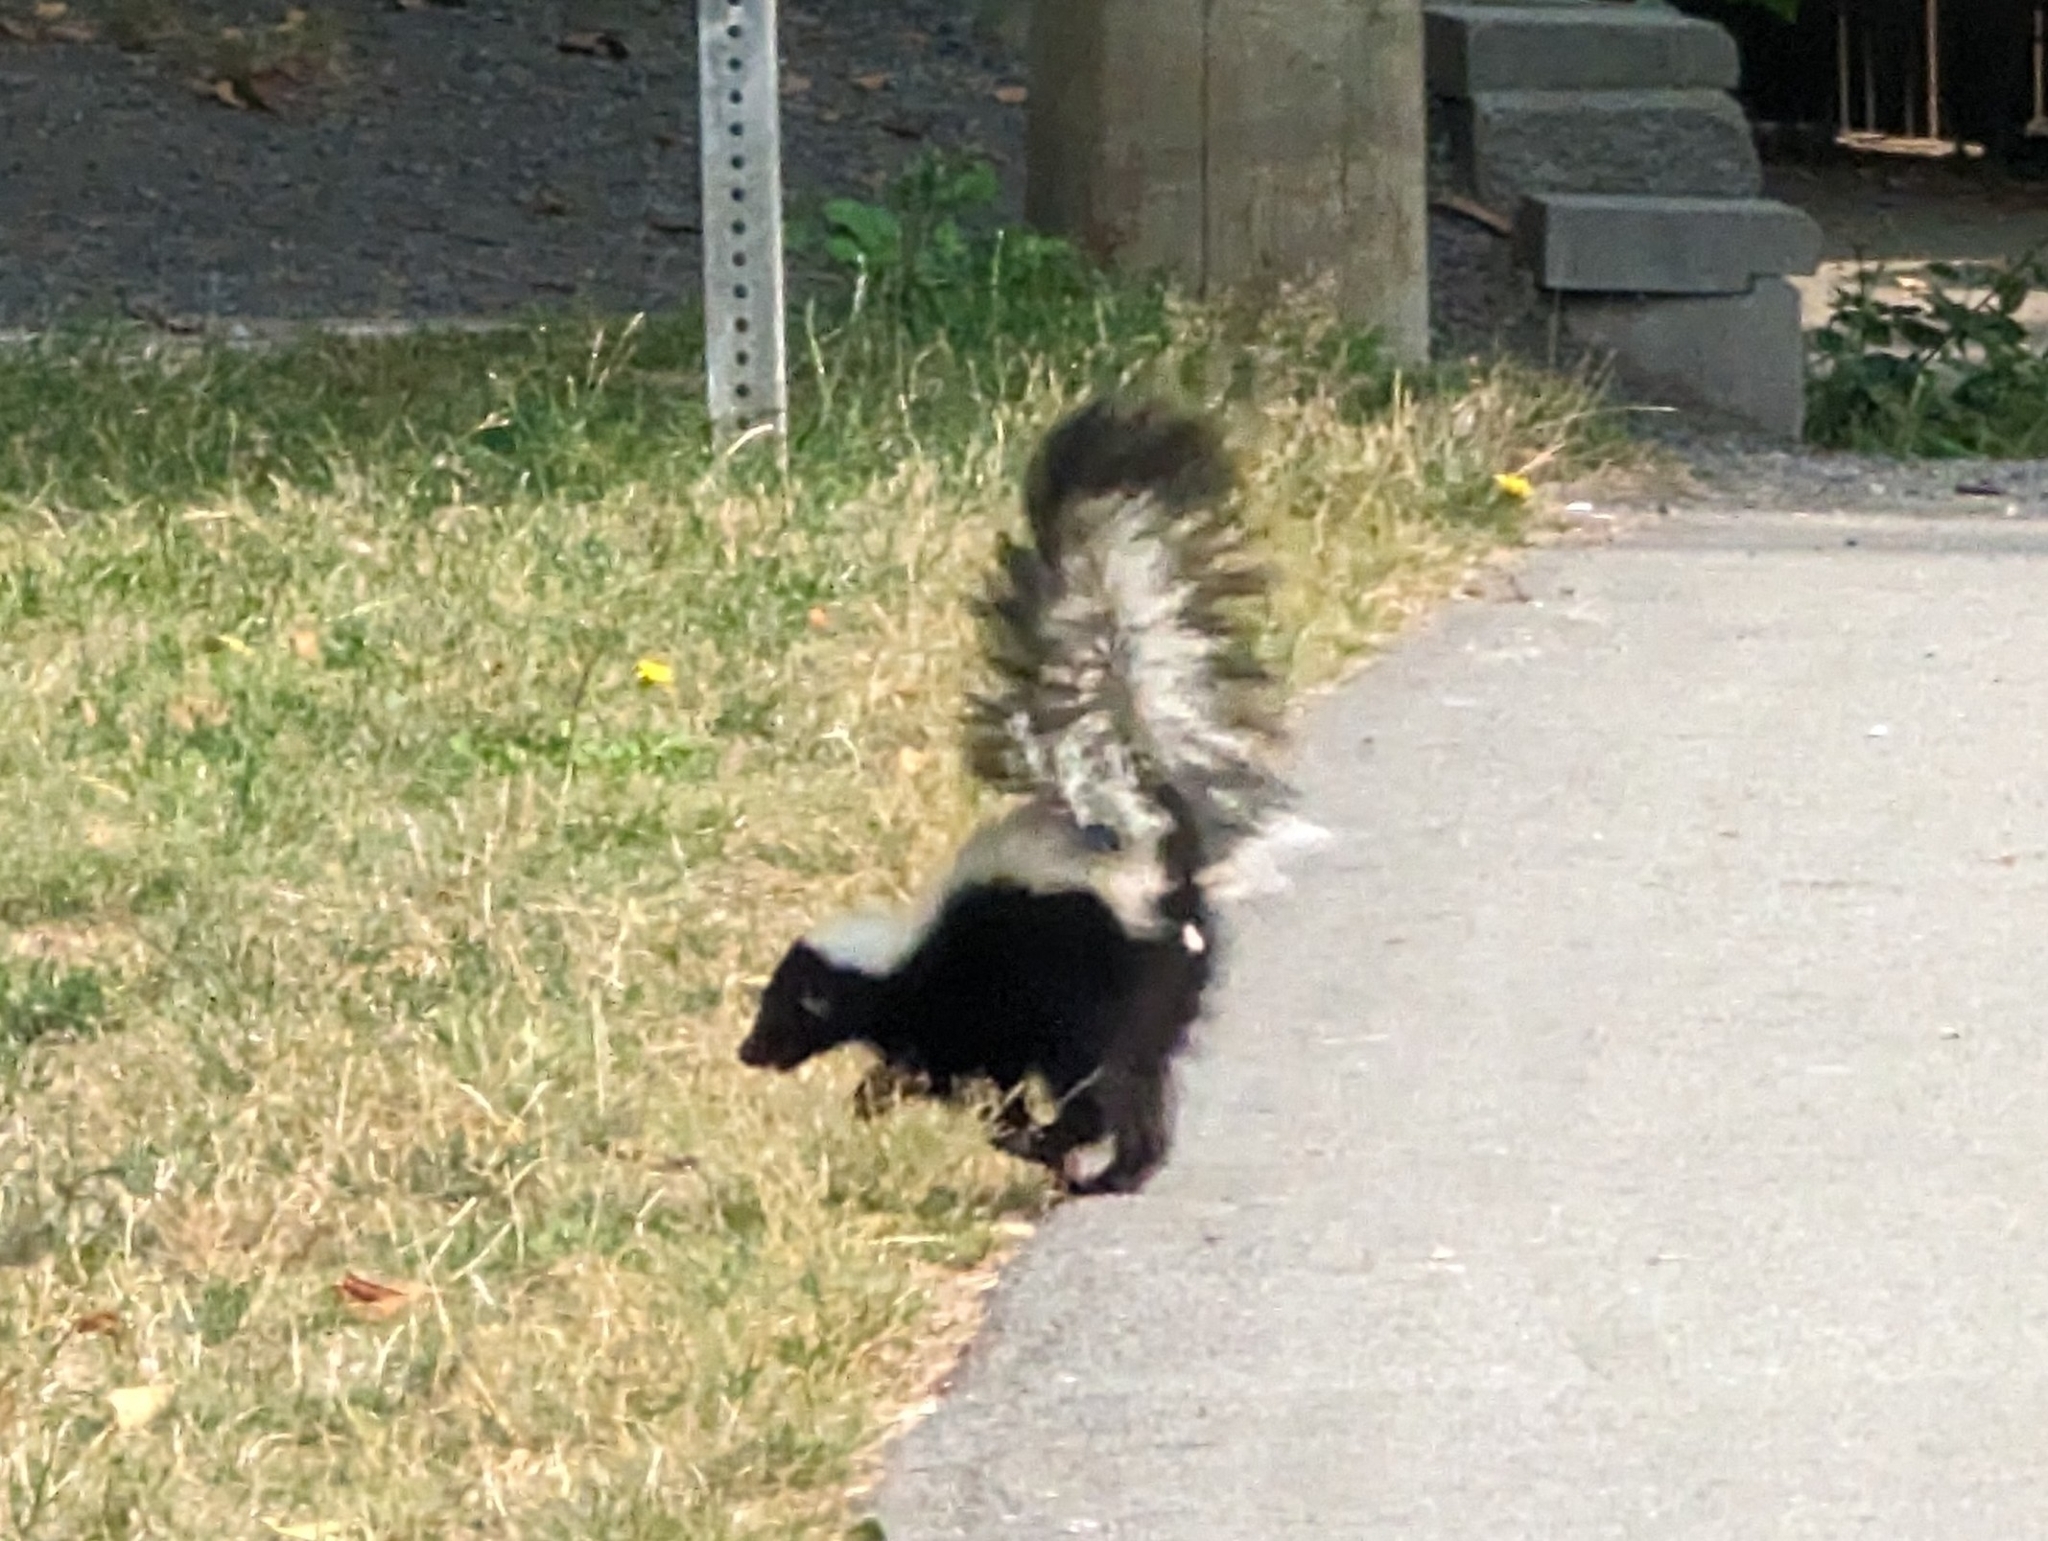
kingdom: Animalia
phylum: Chordata
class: Mammalia
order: Carnivora
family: Mephitidae
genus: Mephitis
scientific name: Mephitis mephitis
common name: Striped skunk
